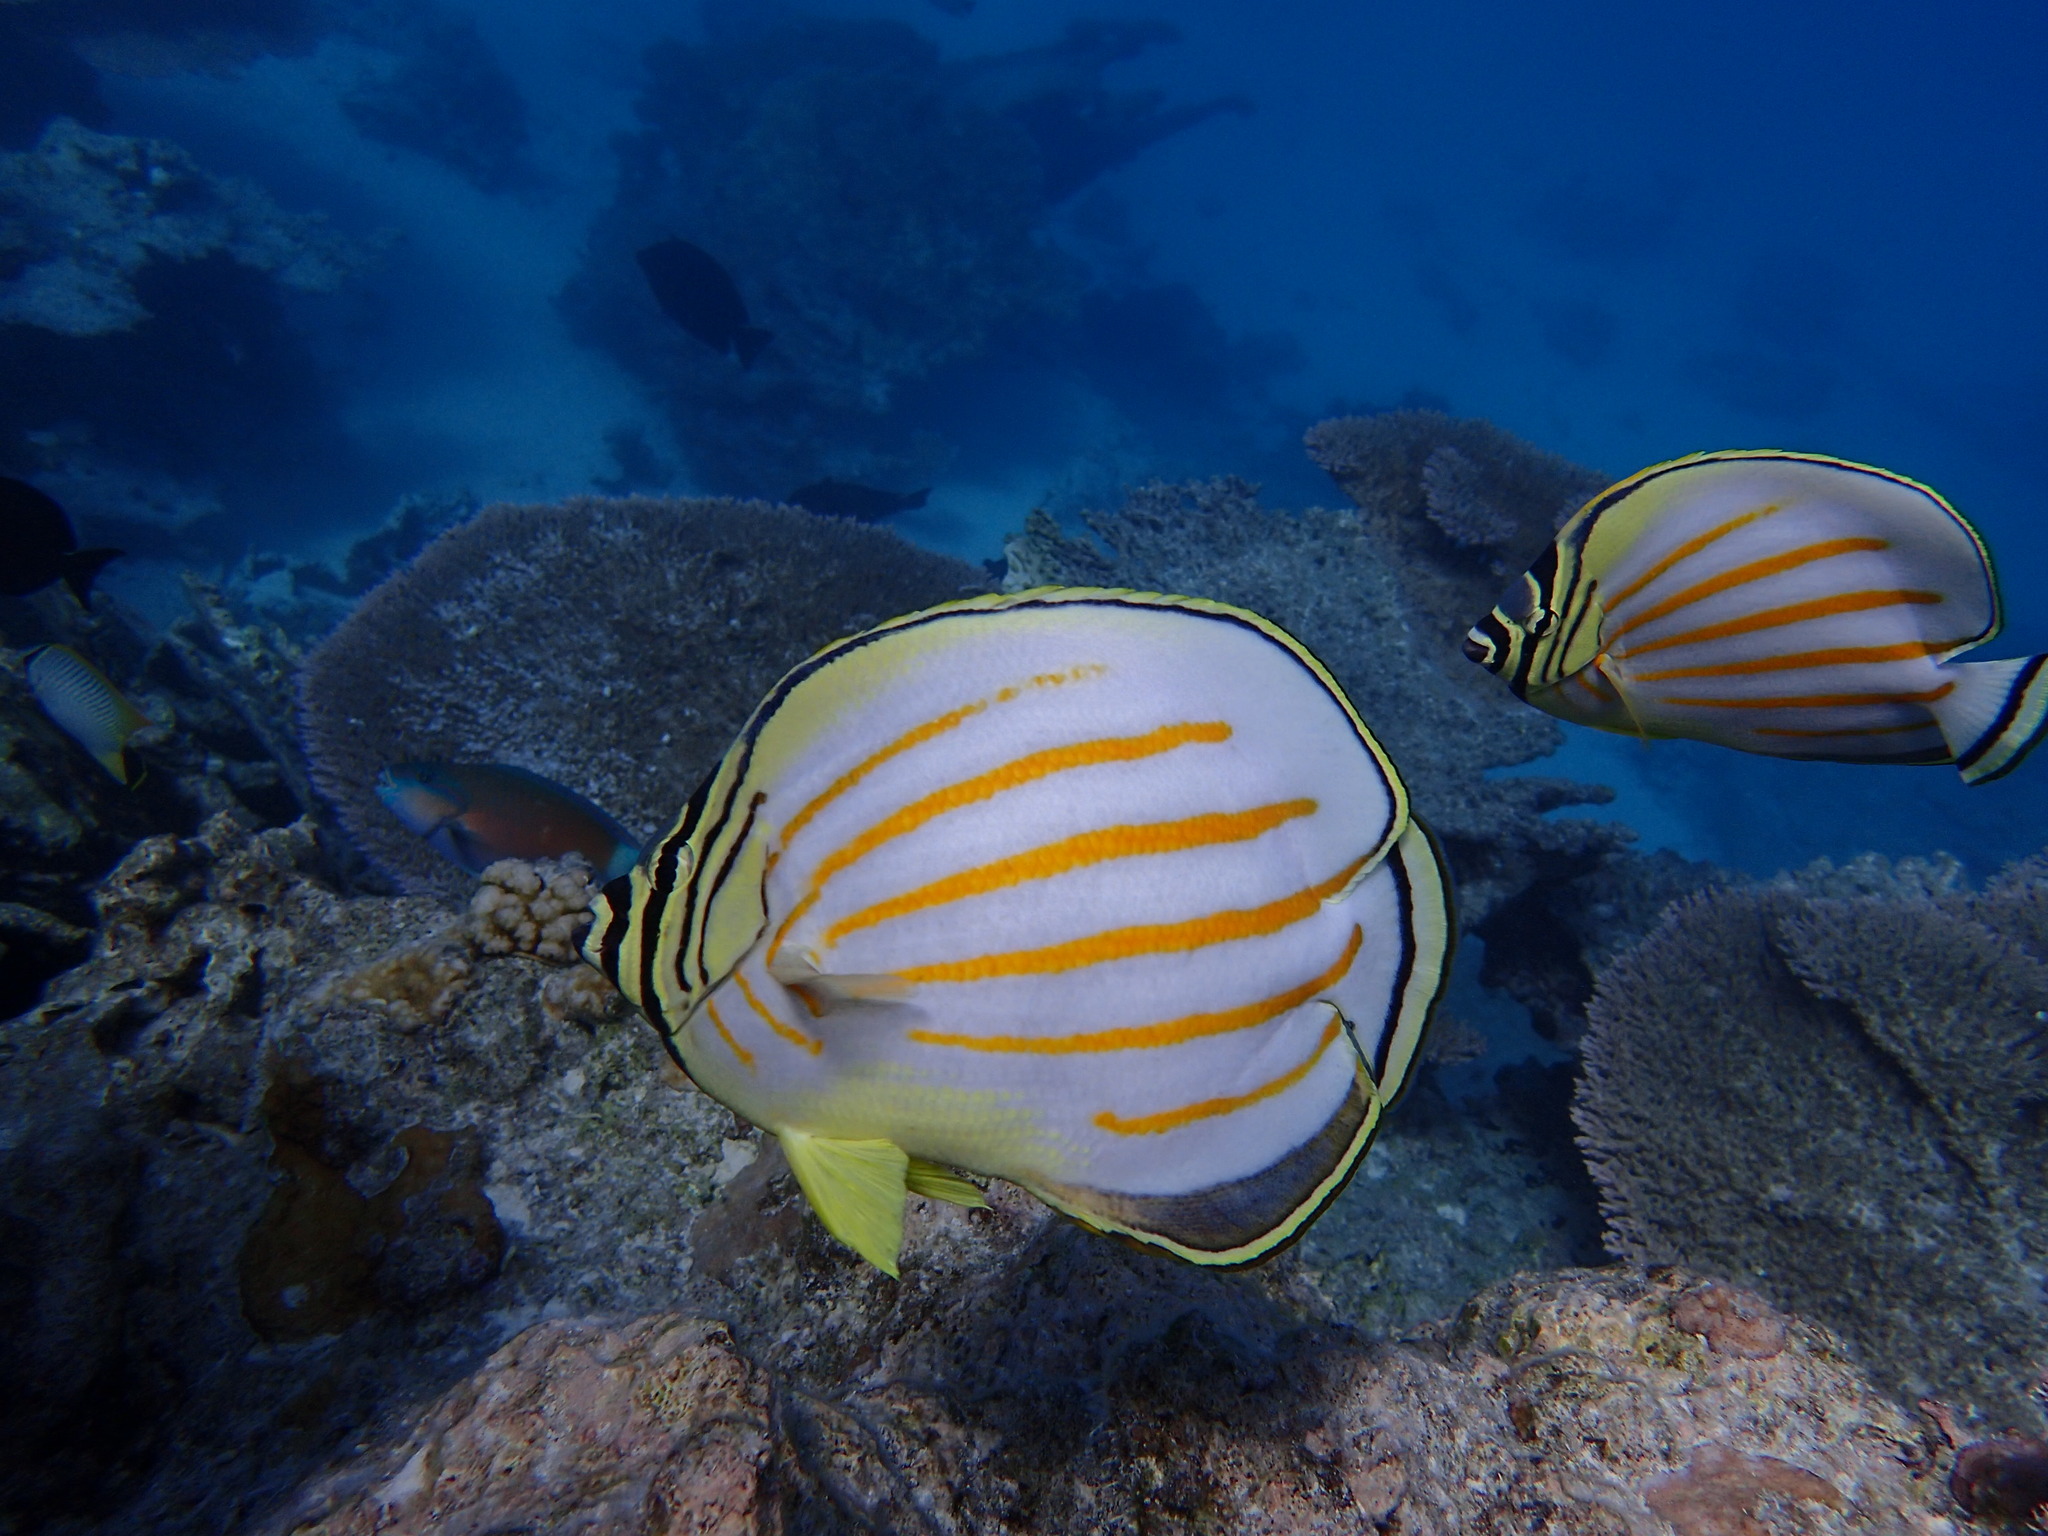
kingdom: Animalia
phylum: Chordata
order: Perciformes
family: Chaetodontidae
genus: Chaetodon
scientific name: Chaetodon ornatissimus
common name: Ornate butterflyfish
